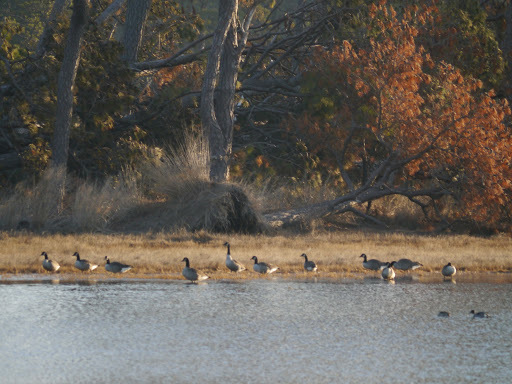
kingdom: Animalia
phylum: Chordata
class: Aves
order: Anseriformes
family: Anatidae
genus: Branta
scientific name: Branta canadensis
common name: Canada goose
